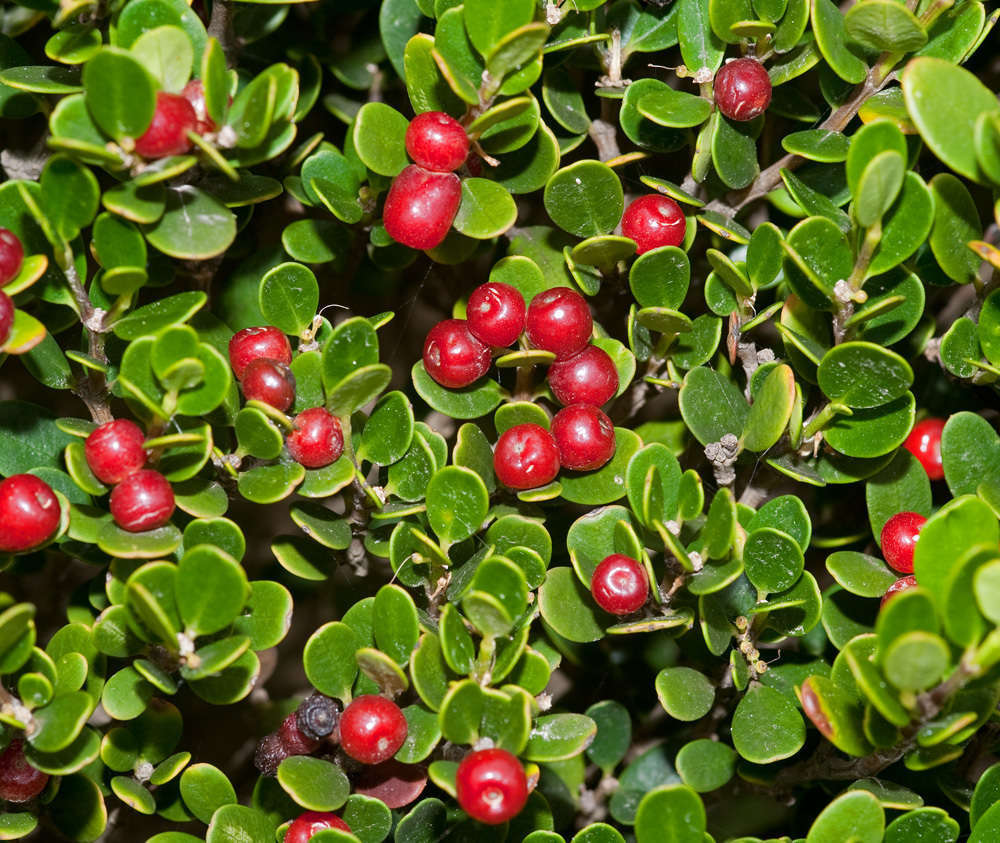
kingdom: Plantae
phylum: Tracheophyta
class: Magnoliopsida
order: Gentianales
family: Apocynaceae
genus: Alyxia
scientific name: Alyxia buxifolia
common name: Dysentery-bush
